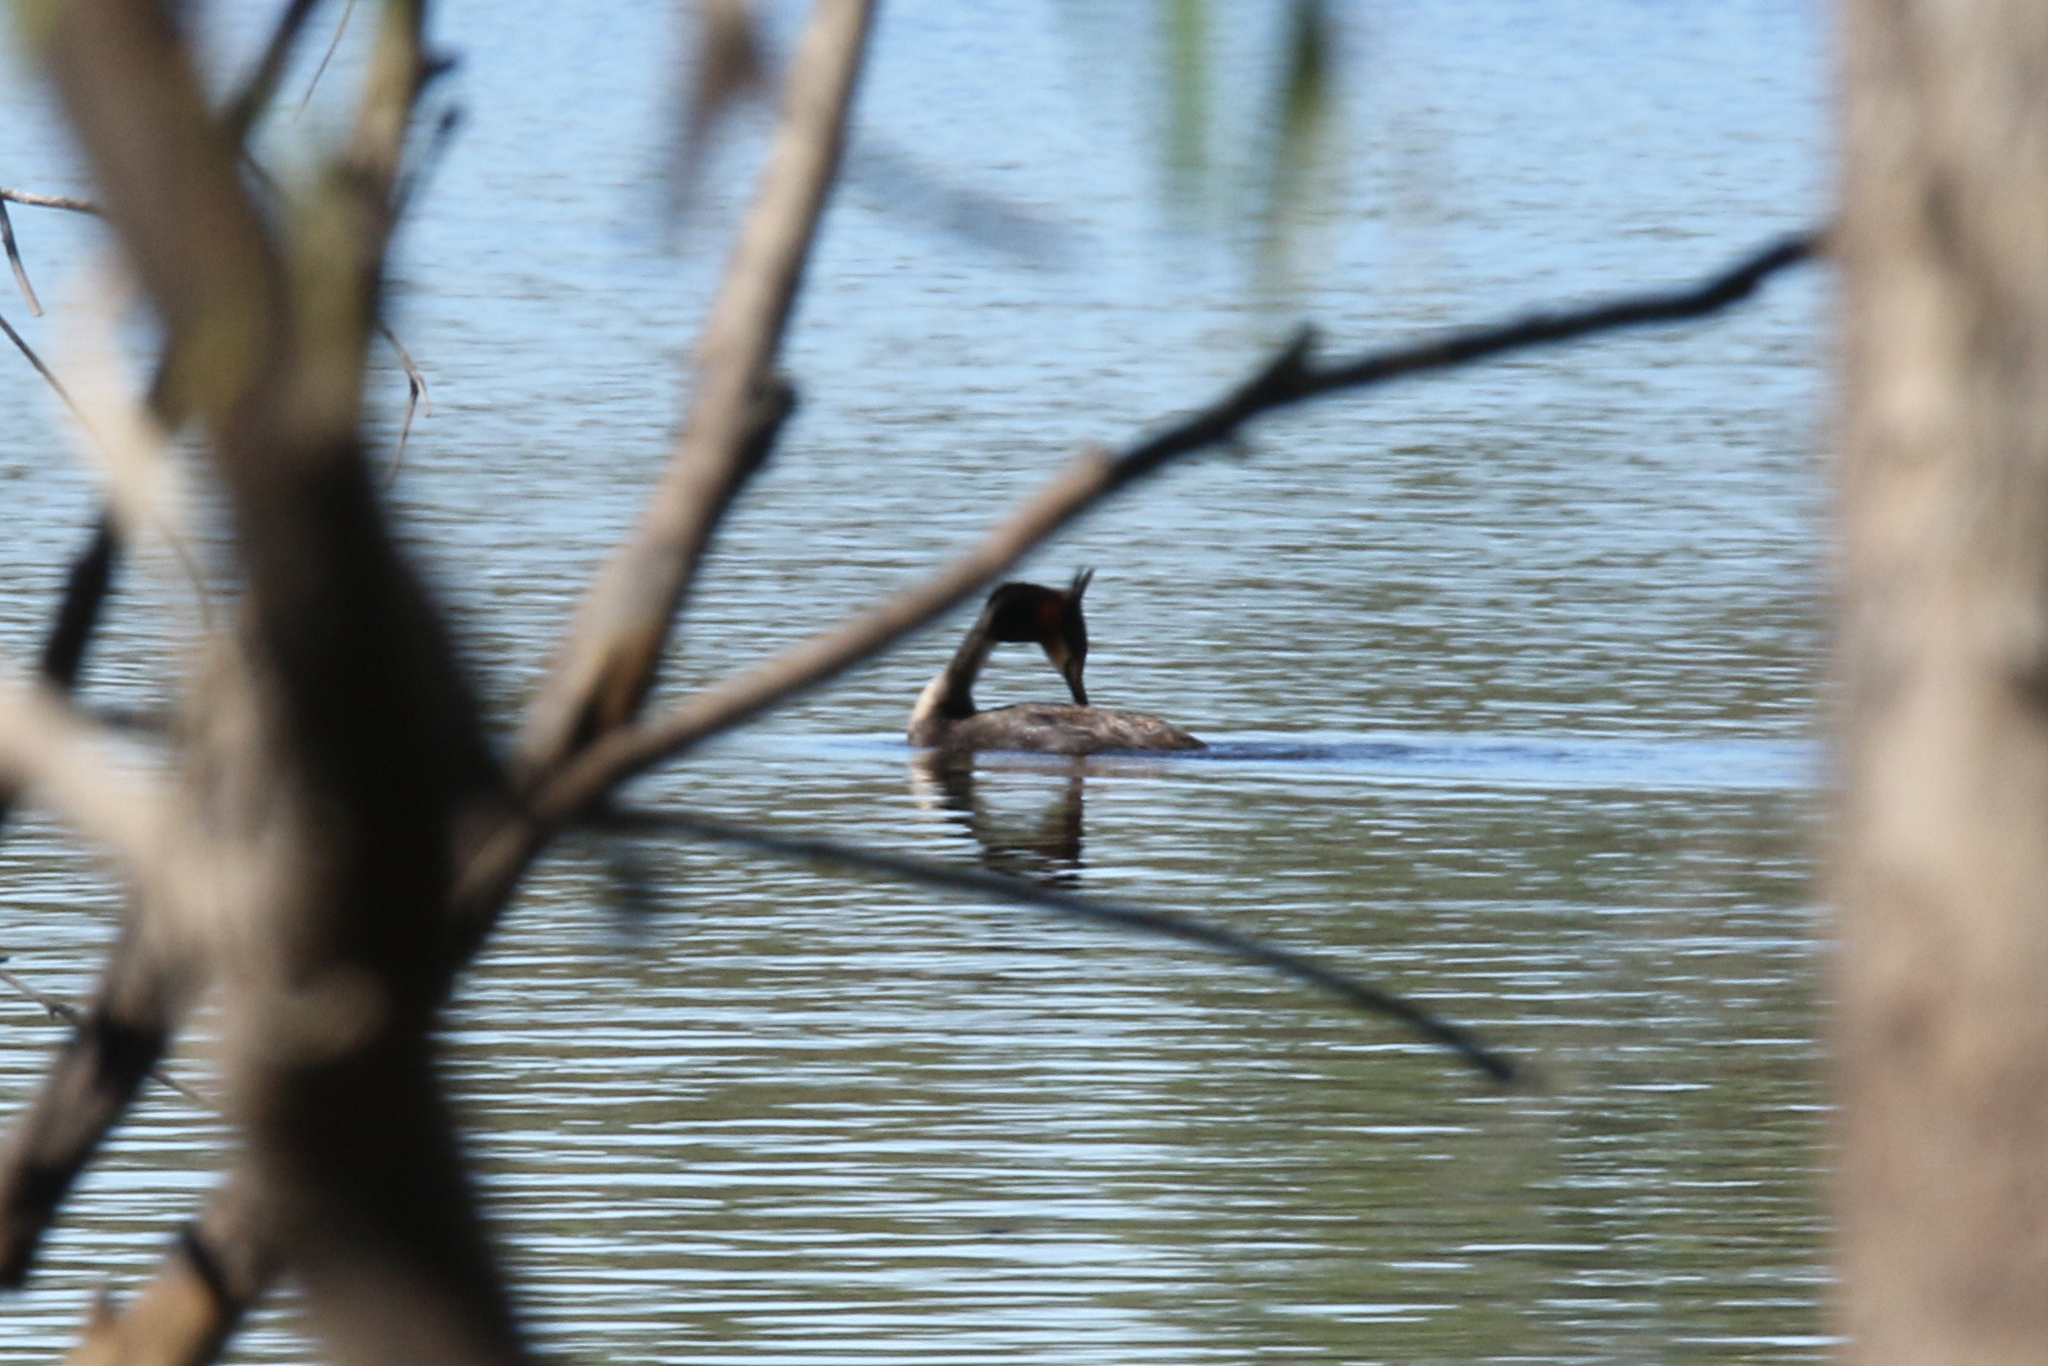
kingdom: Animalia
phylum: Chordata
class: Aves
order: Podicipediformes
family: Podicipedidae
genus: Podiceps
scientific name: Podiceps cristatus
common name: Great crested grebe
